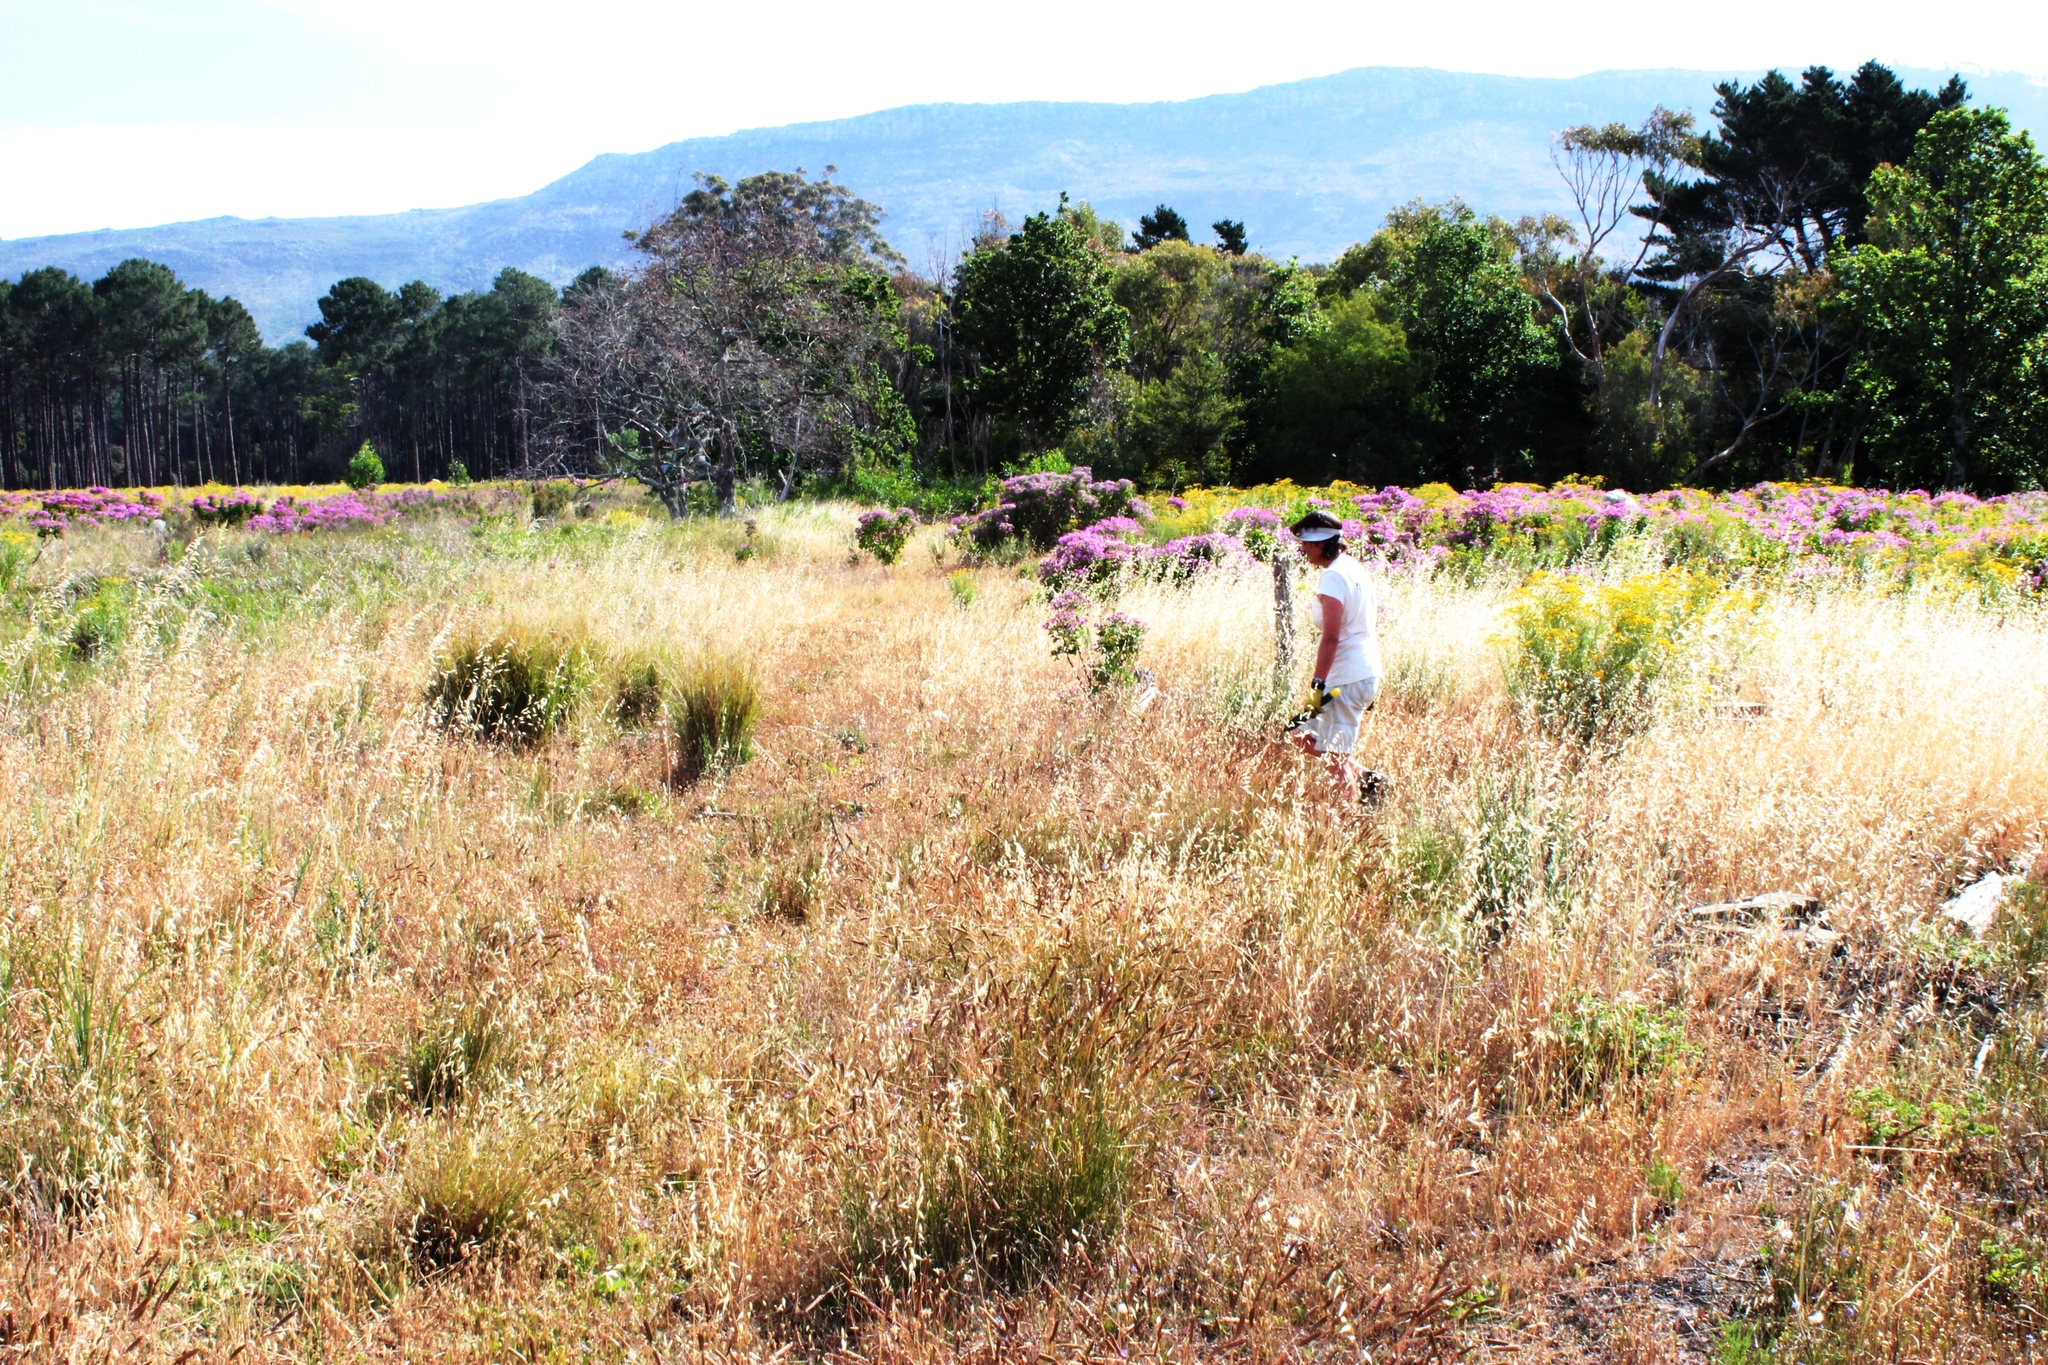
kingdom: Plantae
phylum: Tracheophyta
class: Liliopsida
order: Poales
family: Poaceae
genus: Avena
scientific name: Avena fatua
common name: Wild oat
